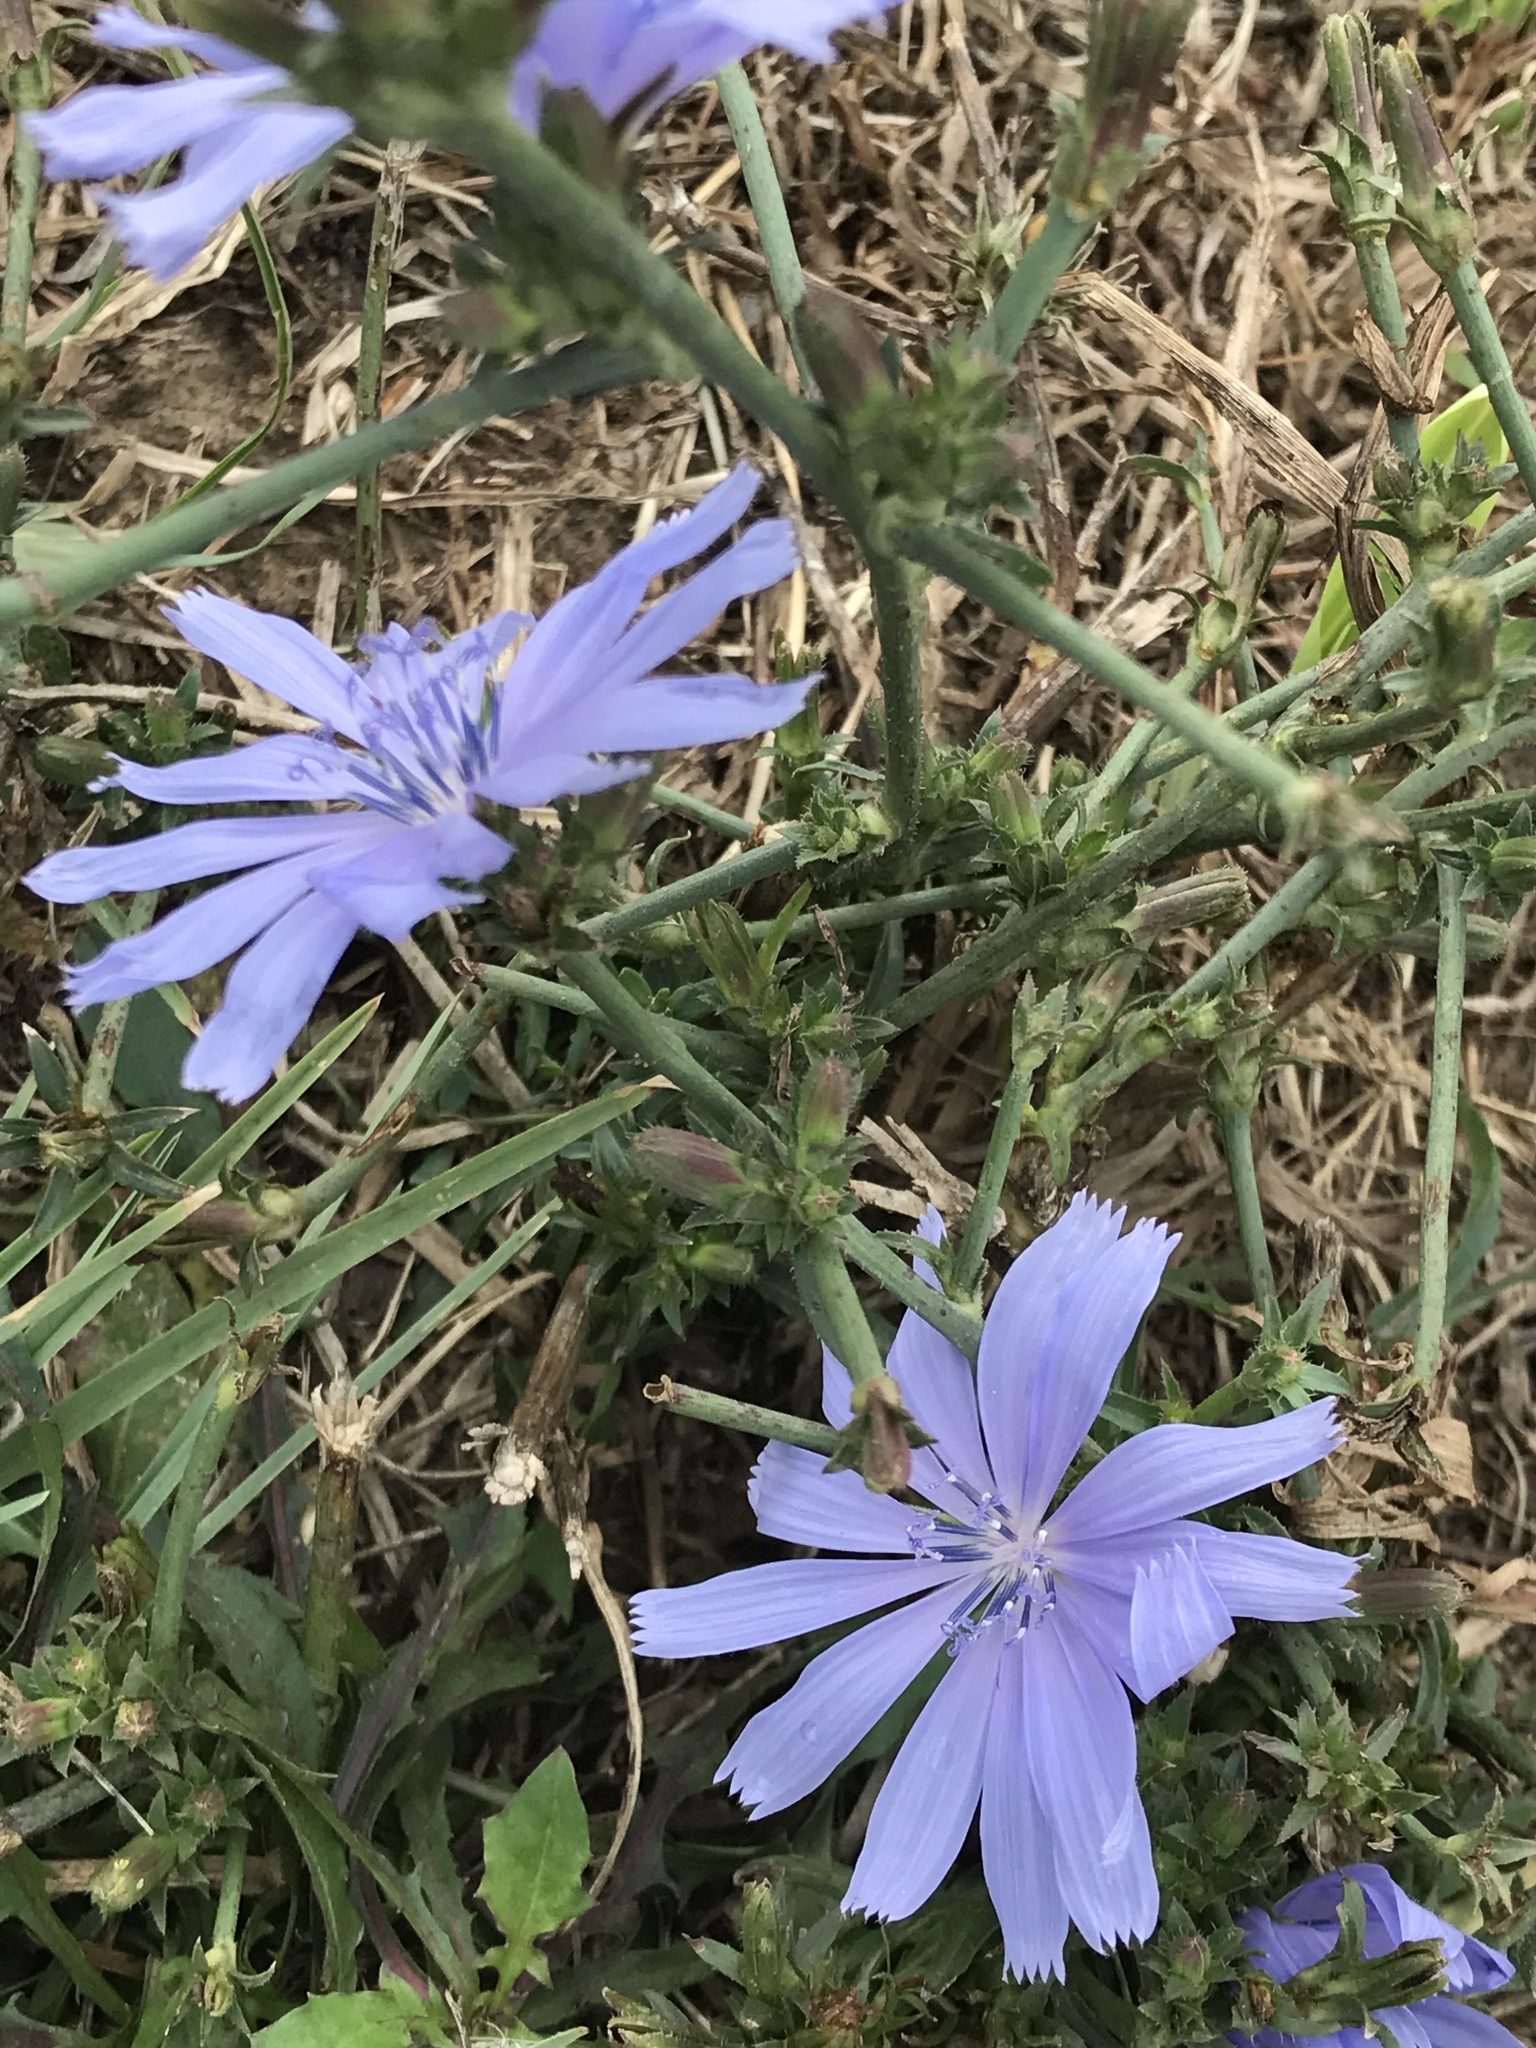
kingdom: Plantae
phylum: Tracheophyta
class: Magnoliopsida
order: Asterales
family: Asteraceae
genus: Cichorium
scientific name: Cichorium intybus
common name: Chicory
